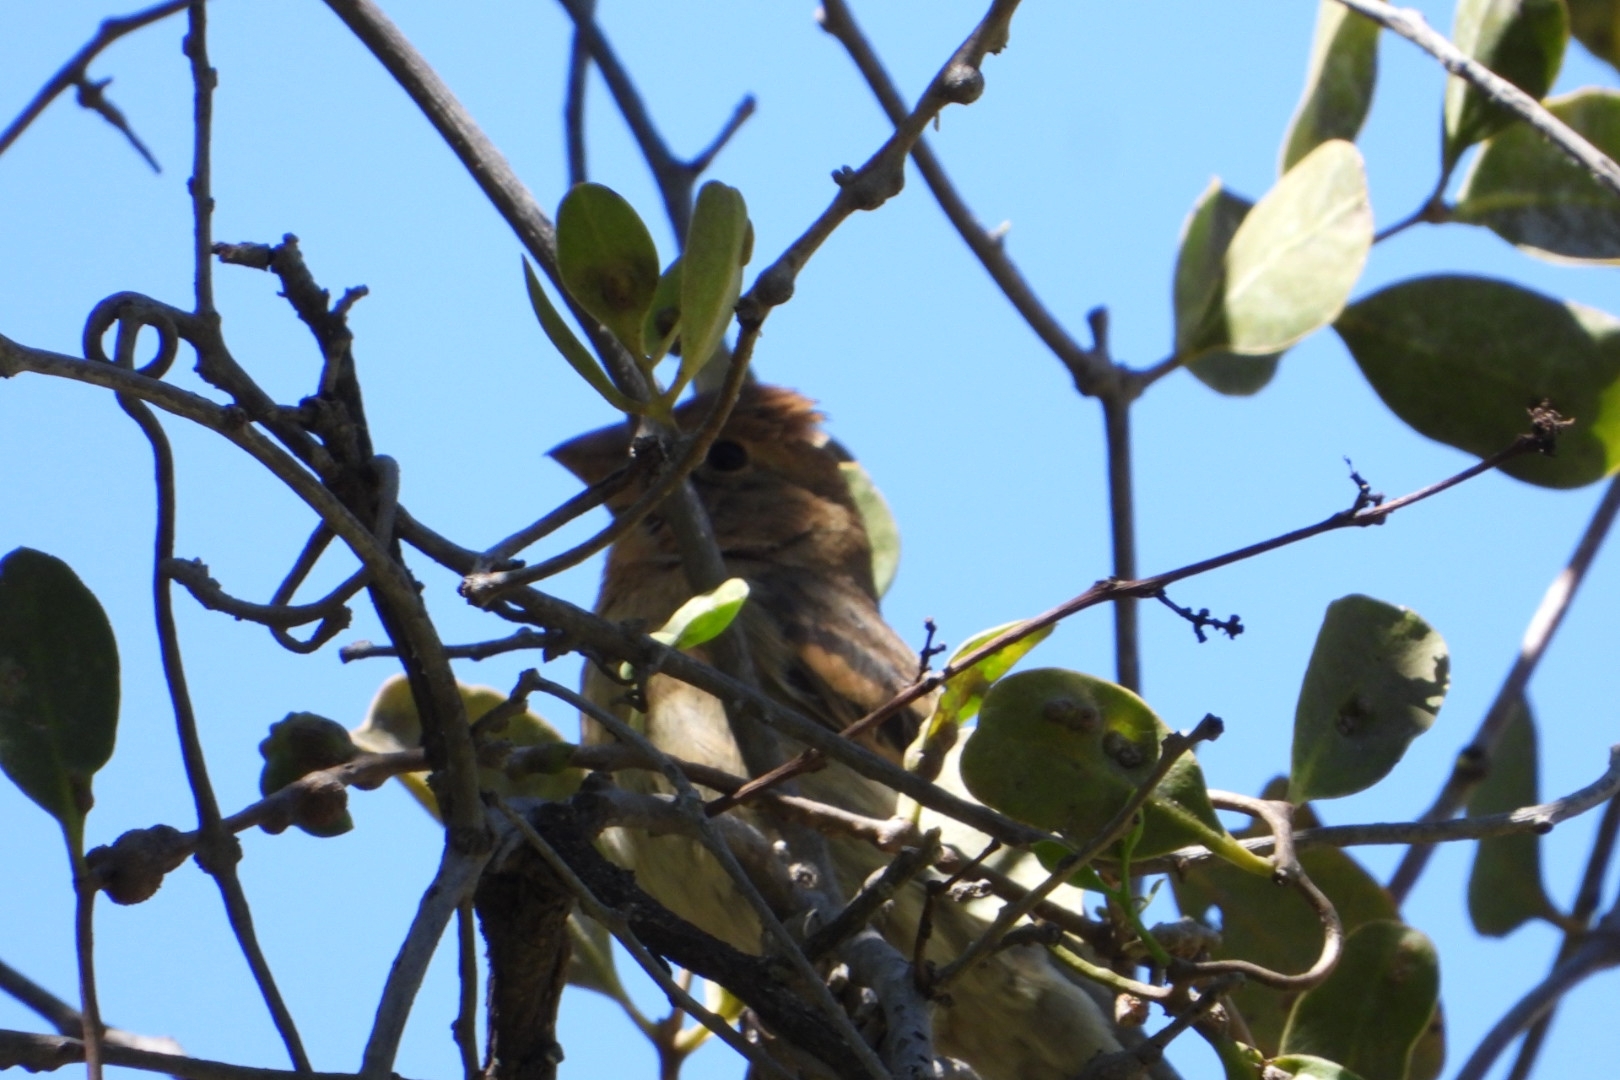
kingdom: Animalia
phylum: Chordata
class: Aves
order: Passeriformes
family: Cardinalidae
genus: Passerina
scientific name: Passerina caerulea
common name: Blue grosbeak
